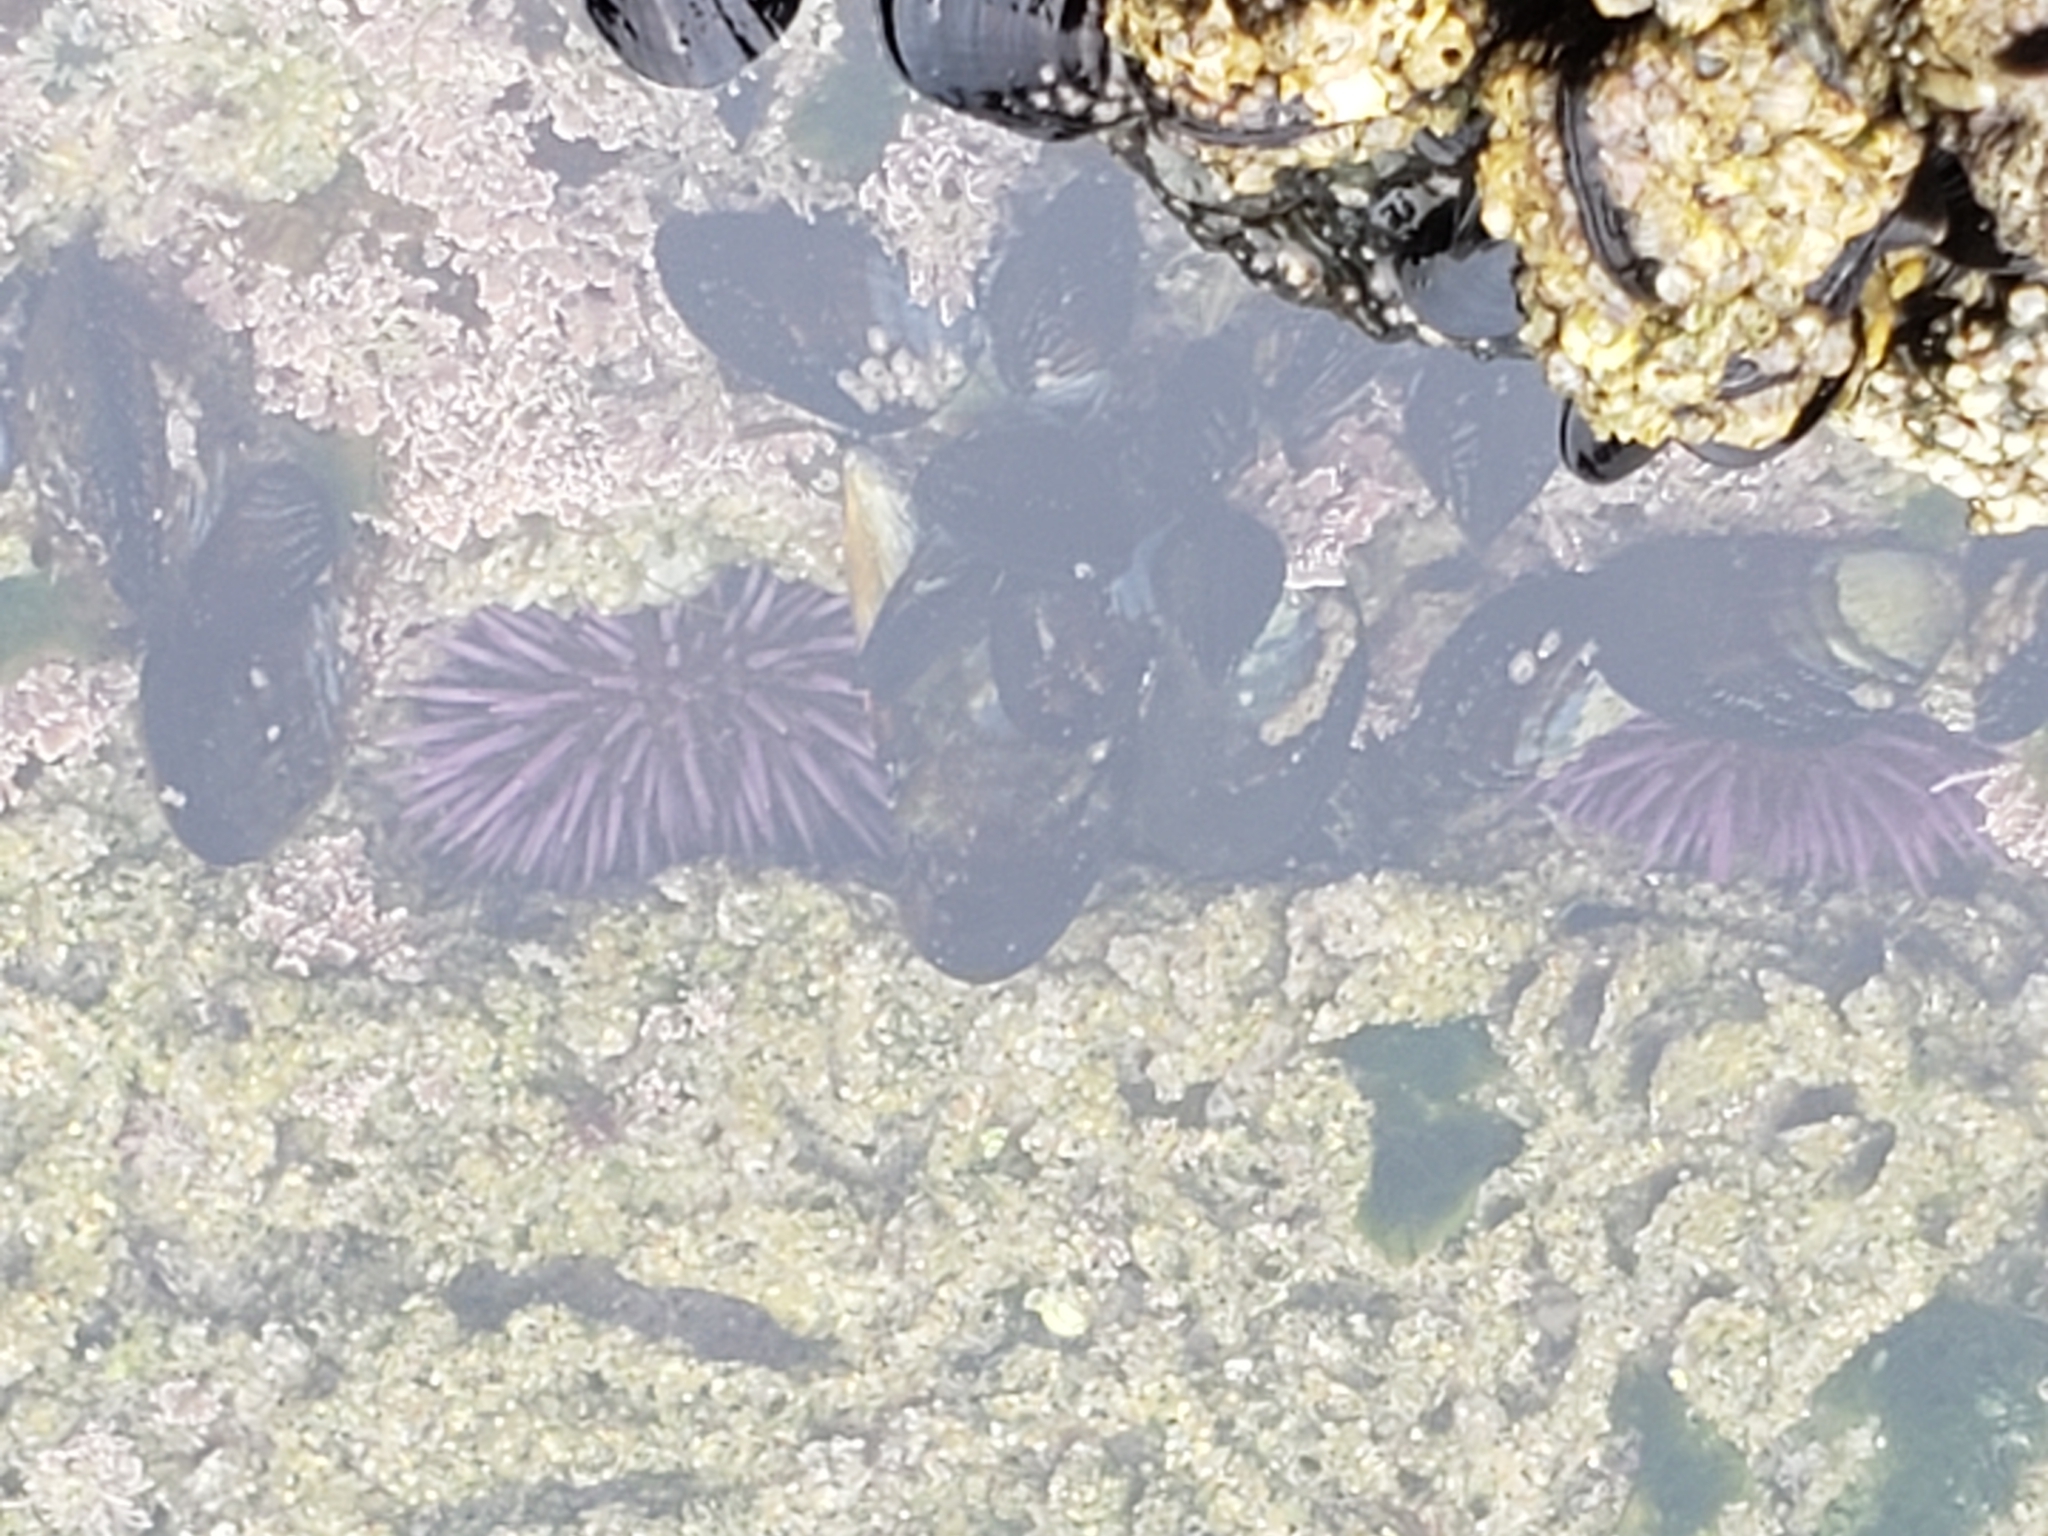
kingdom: Animalia
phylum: Echinodermata
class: Echinoidea
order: Camarodonta
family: Strongylocentrotidae
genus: Strongylocentrotus
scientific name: Strongylocentrotus purpuratus
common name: Purple sea urchin
